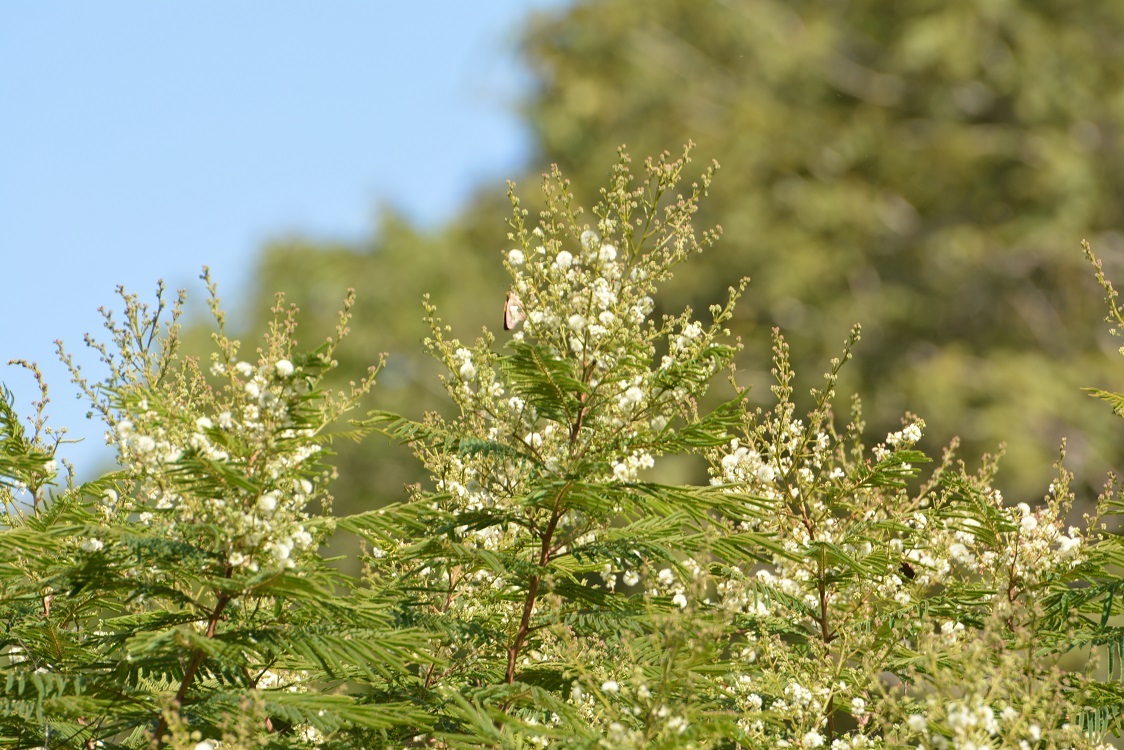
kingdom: Plantae
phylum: Tracheophyta
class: Magnoliopsida
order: Fabales
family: Fabaceae
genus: Acaciella
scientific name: Acaciella angustissima
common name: Prairie acacia
